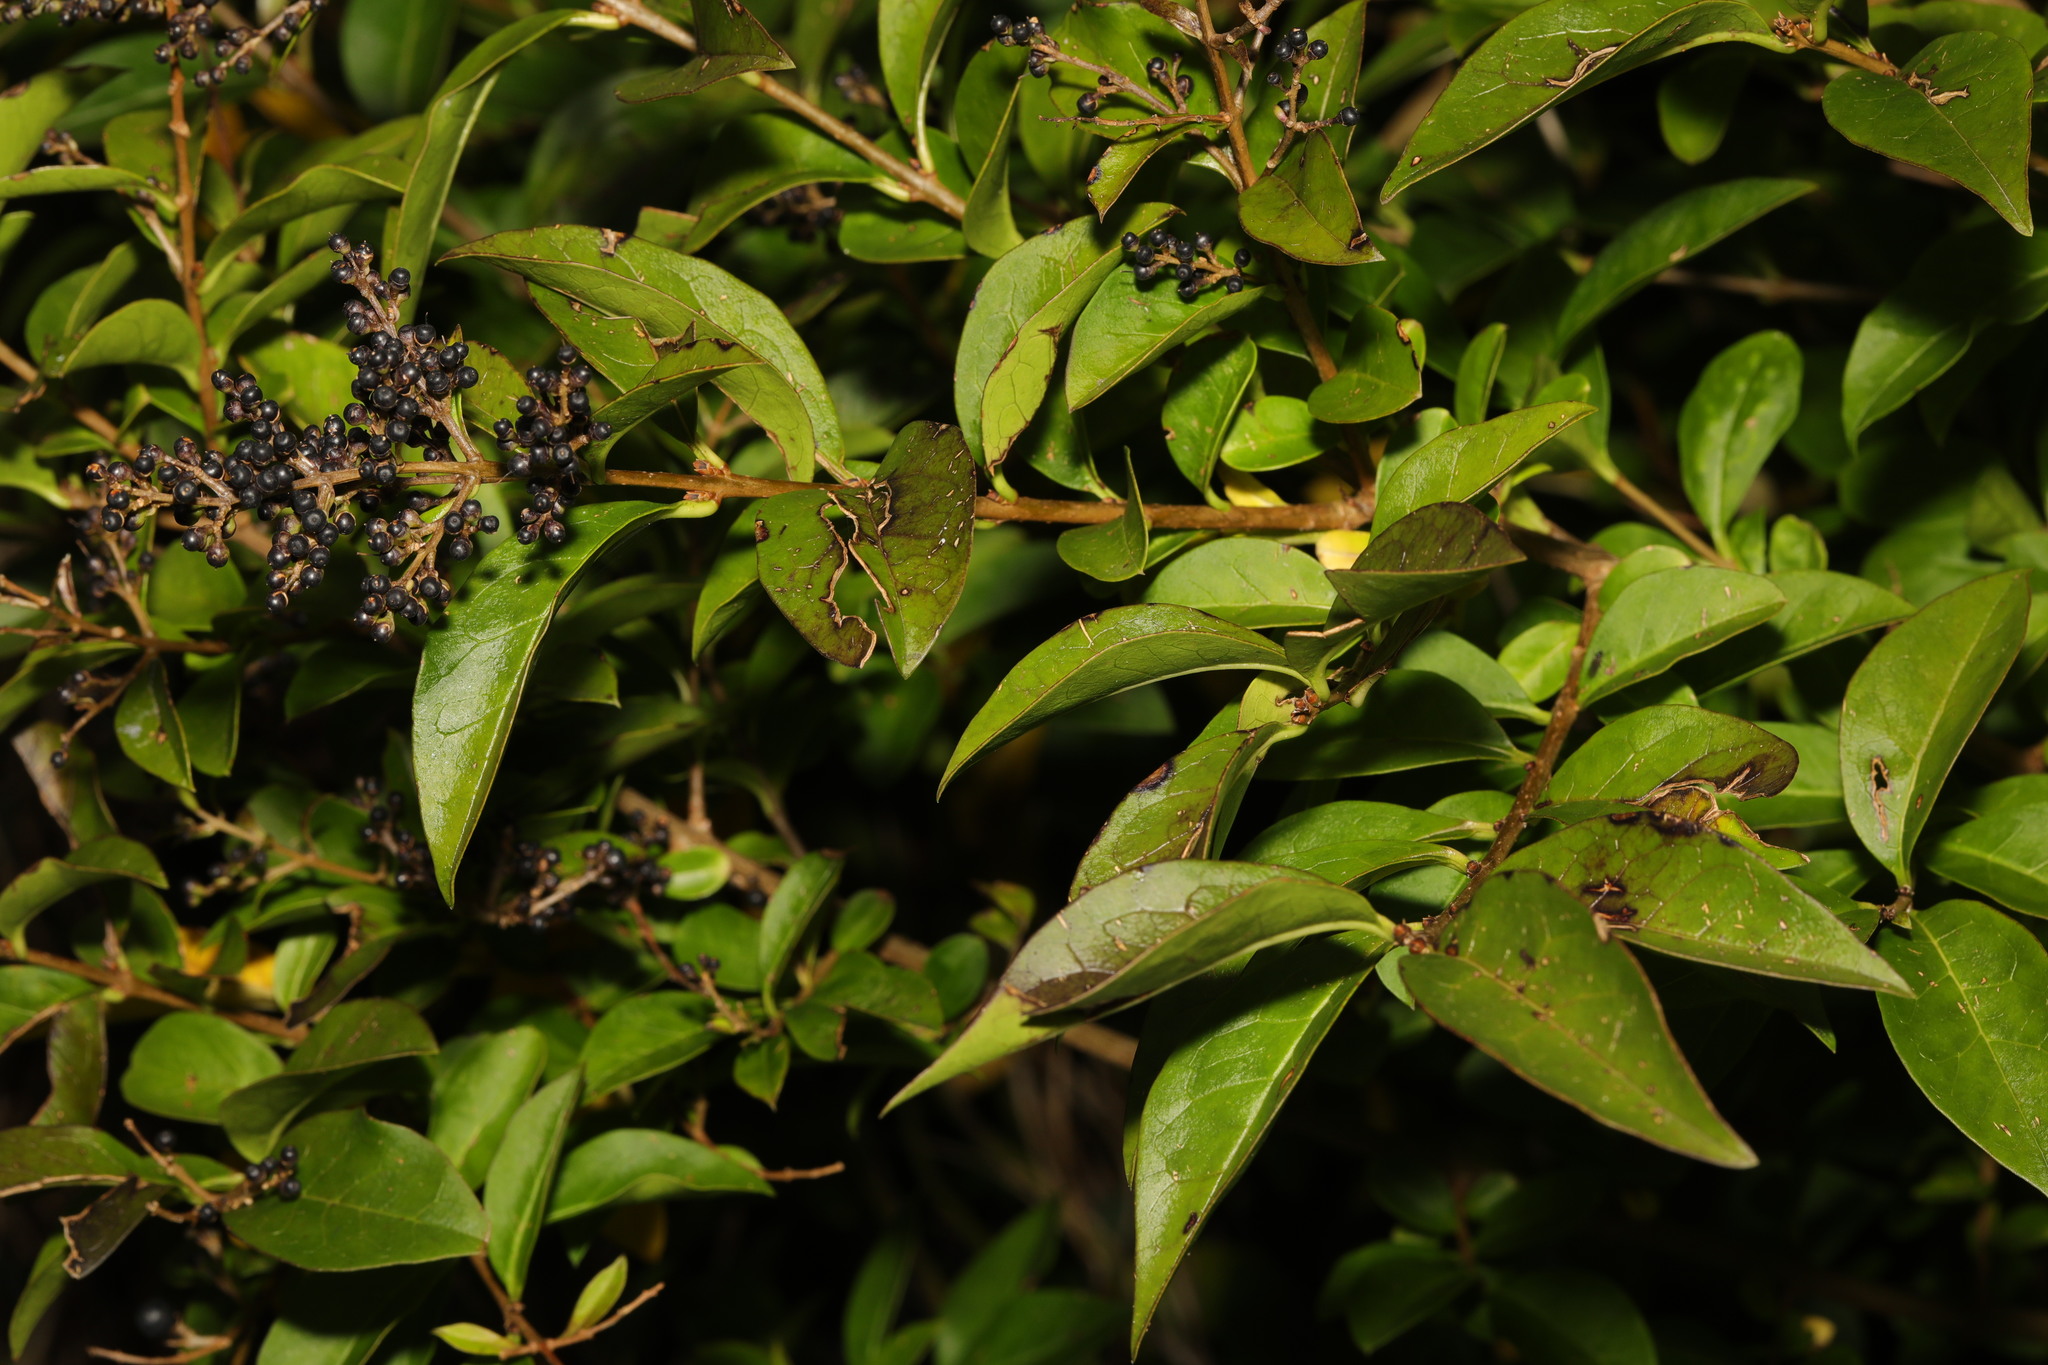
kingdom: Plantae
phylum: Tracheophyta
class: Magnoliopsida
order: Lamiales
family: Oleaceae
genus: Ligustrum
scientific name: Ligustrum ovalifolium
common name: California privet
